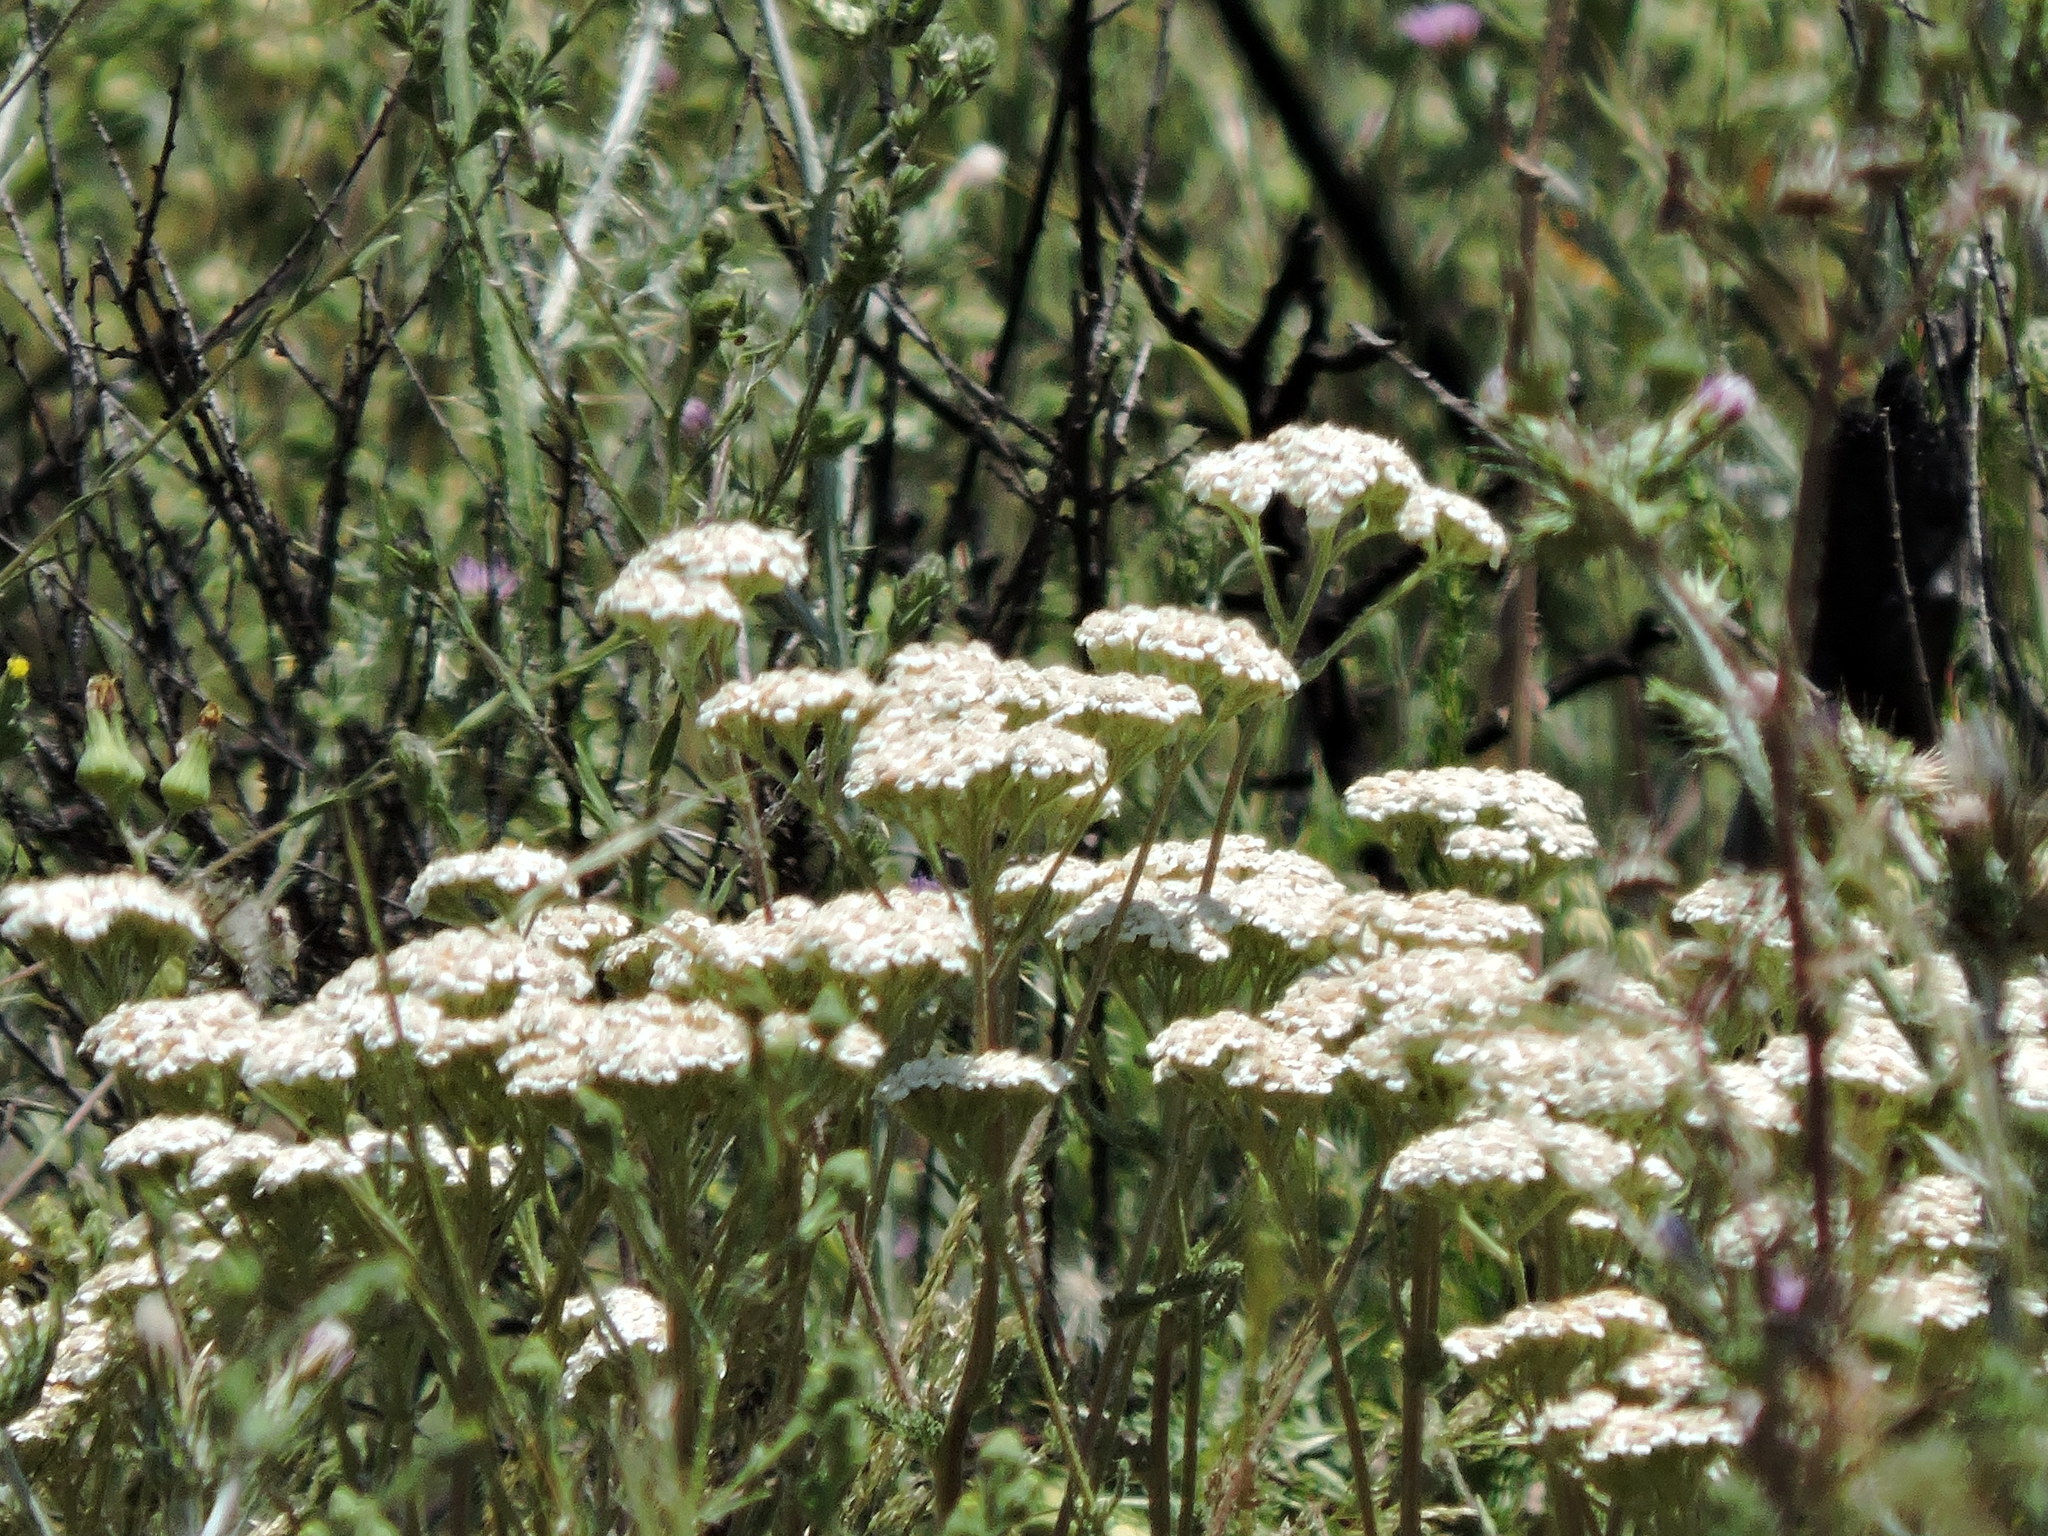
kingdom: Plantae
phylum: Tracheophyta
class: Magnoliopsida
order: Asterales
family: Asteraceae
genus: Achillea
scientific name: Achillea millefolium
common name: Yarrow
